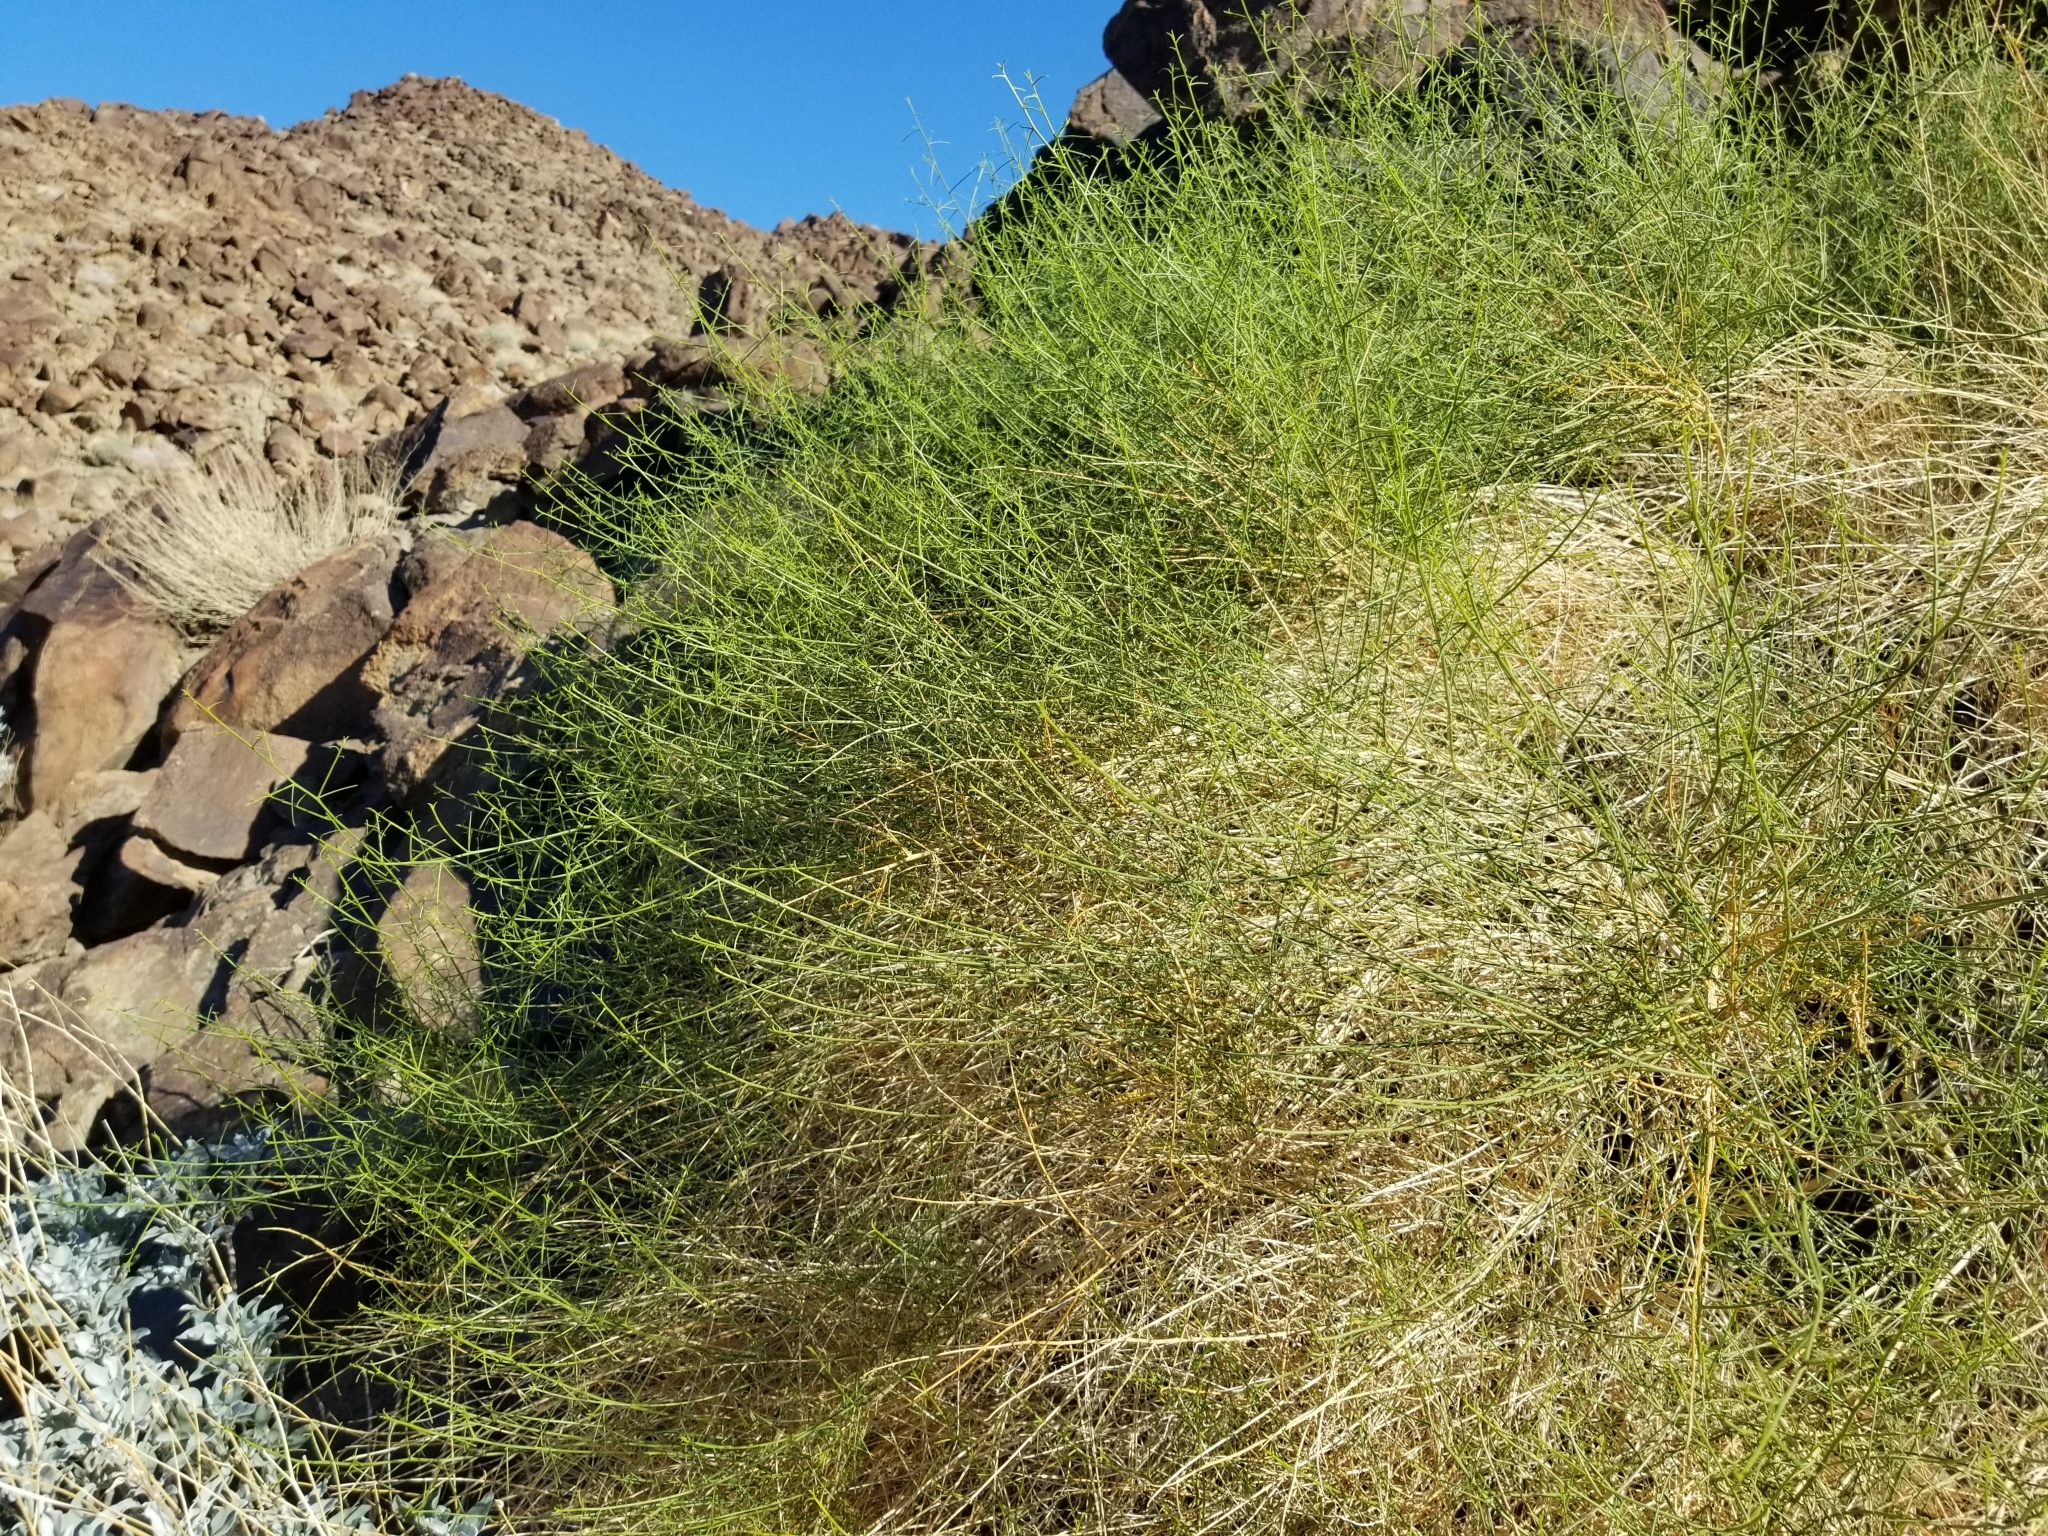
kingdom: Plantae
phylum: Tracheophyta
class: Magnoliopsida
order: Asterales
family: Asteraceae
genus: Ambrosia
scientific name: Ambrosia salsola
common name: Burrobrush
